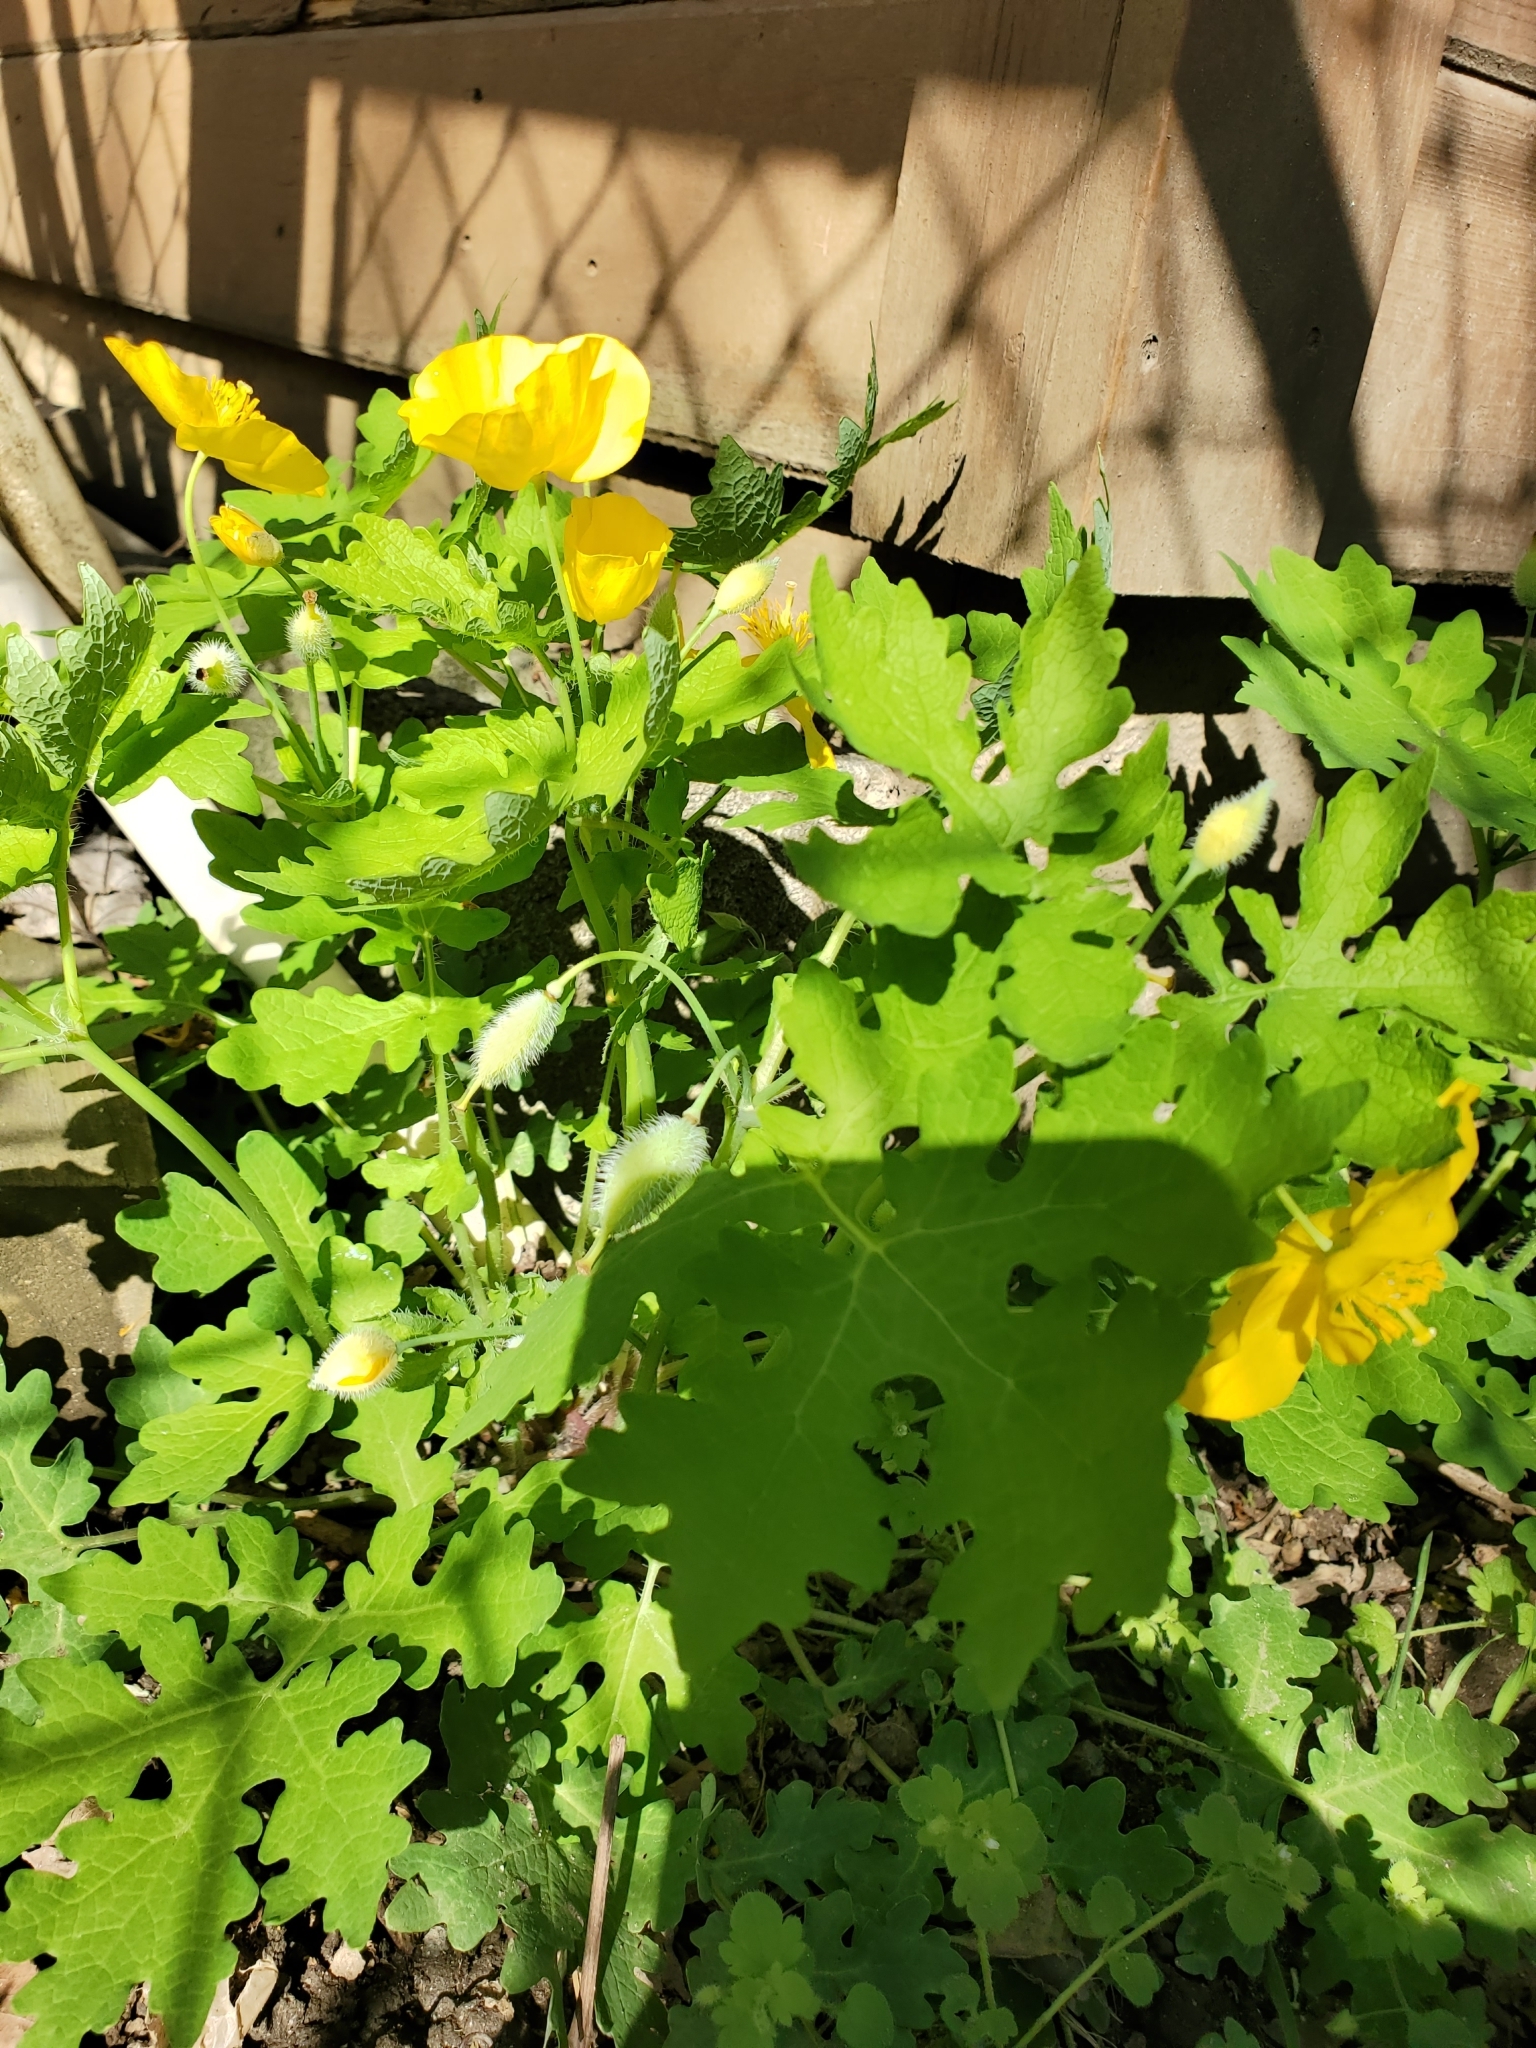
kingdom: Plantae
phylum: Tracheophyta
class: Magnoliopsida
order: Ranunculales
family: Papaveraceae
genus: Stylophorum
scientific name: Stylophorum diphyllum
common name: Celandine poppy
